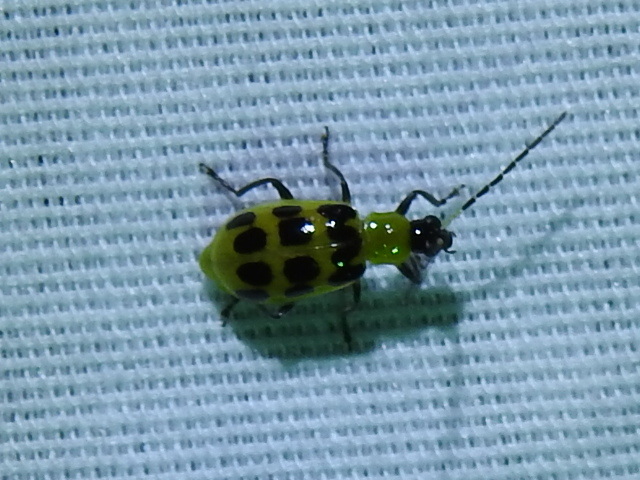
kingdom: Animalia
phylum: Arthropoda
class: Insecta
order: Coleoptera
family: Chrysomelidae
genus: Diabrotica
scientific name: Diabrotica undecimpunctata
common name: Spotted cucumber beetle
